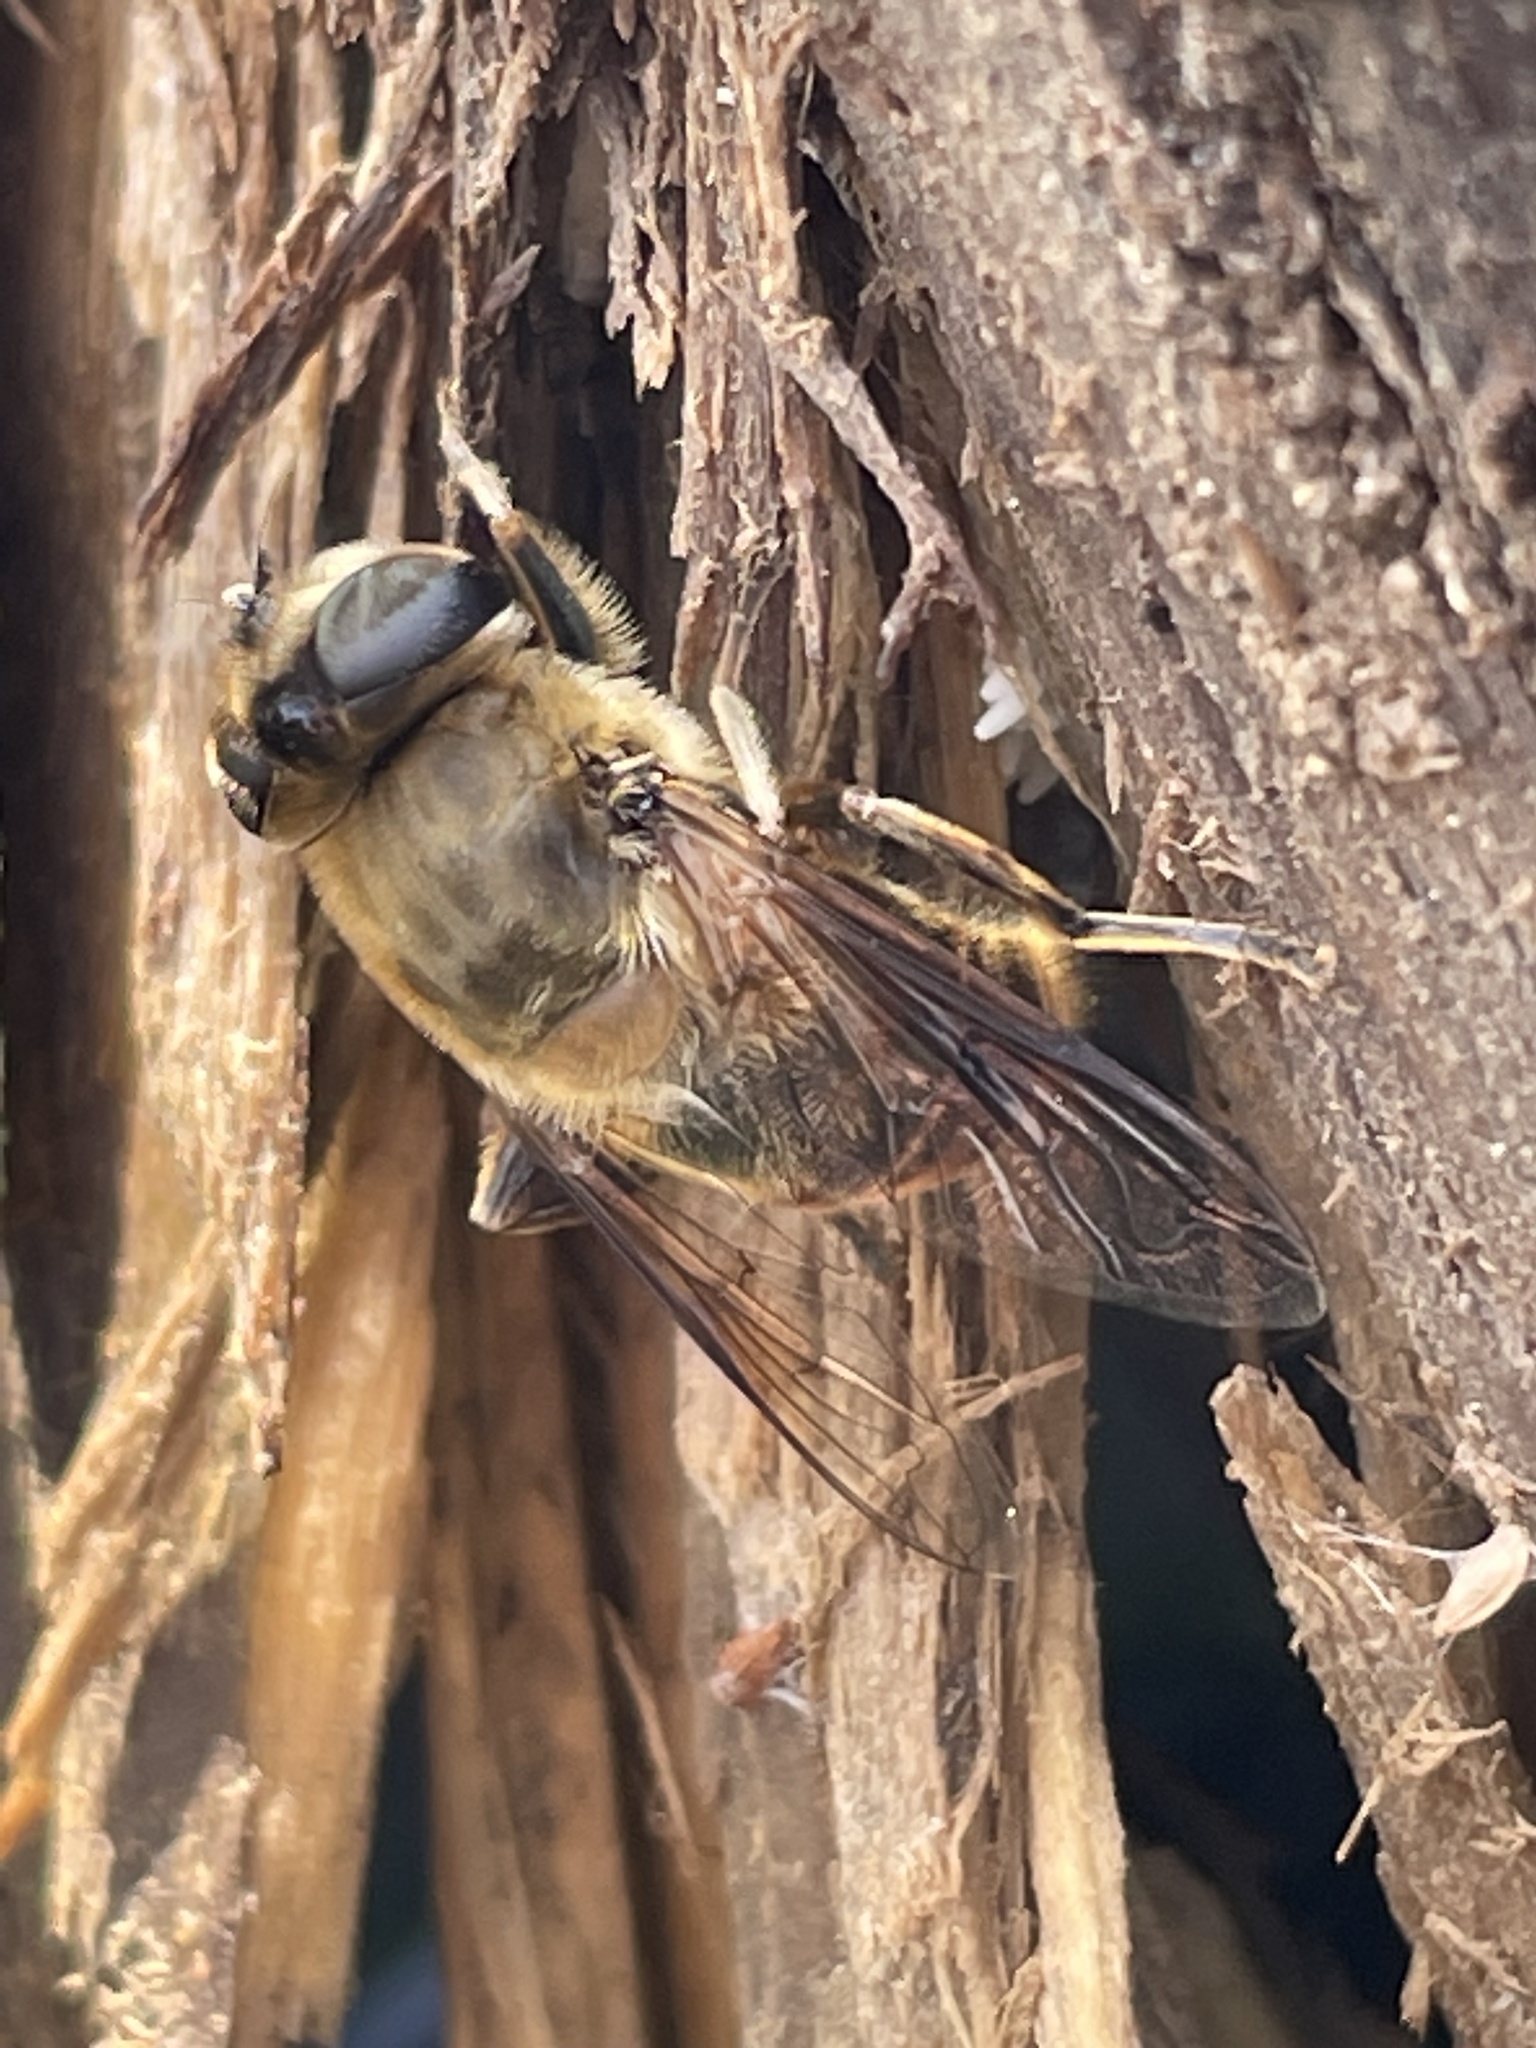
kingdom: Animalia
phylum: Arthropoda
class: Insecta
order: Diptera
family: Syrphidae
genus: Eristalis
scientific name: Eristalis tenax
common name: Drone fly
